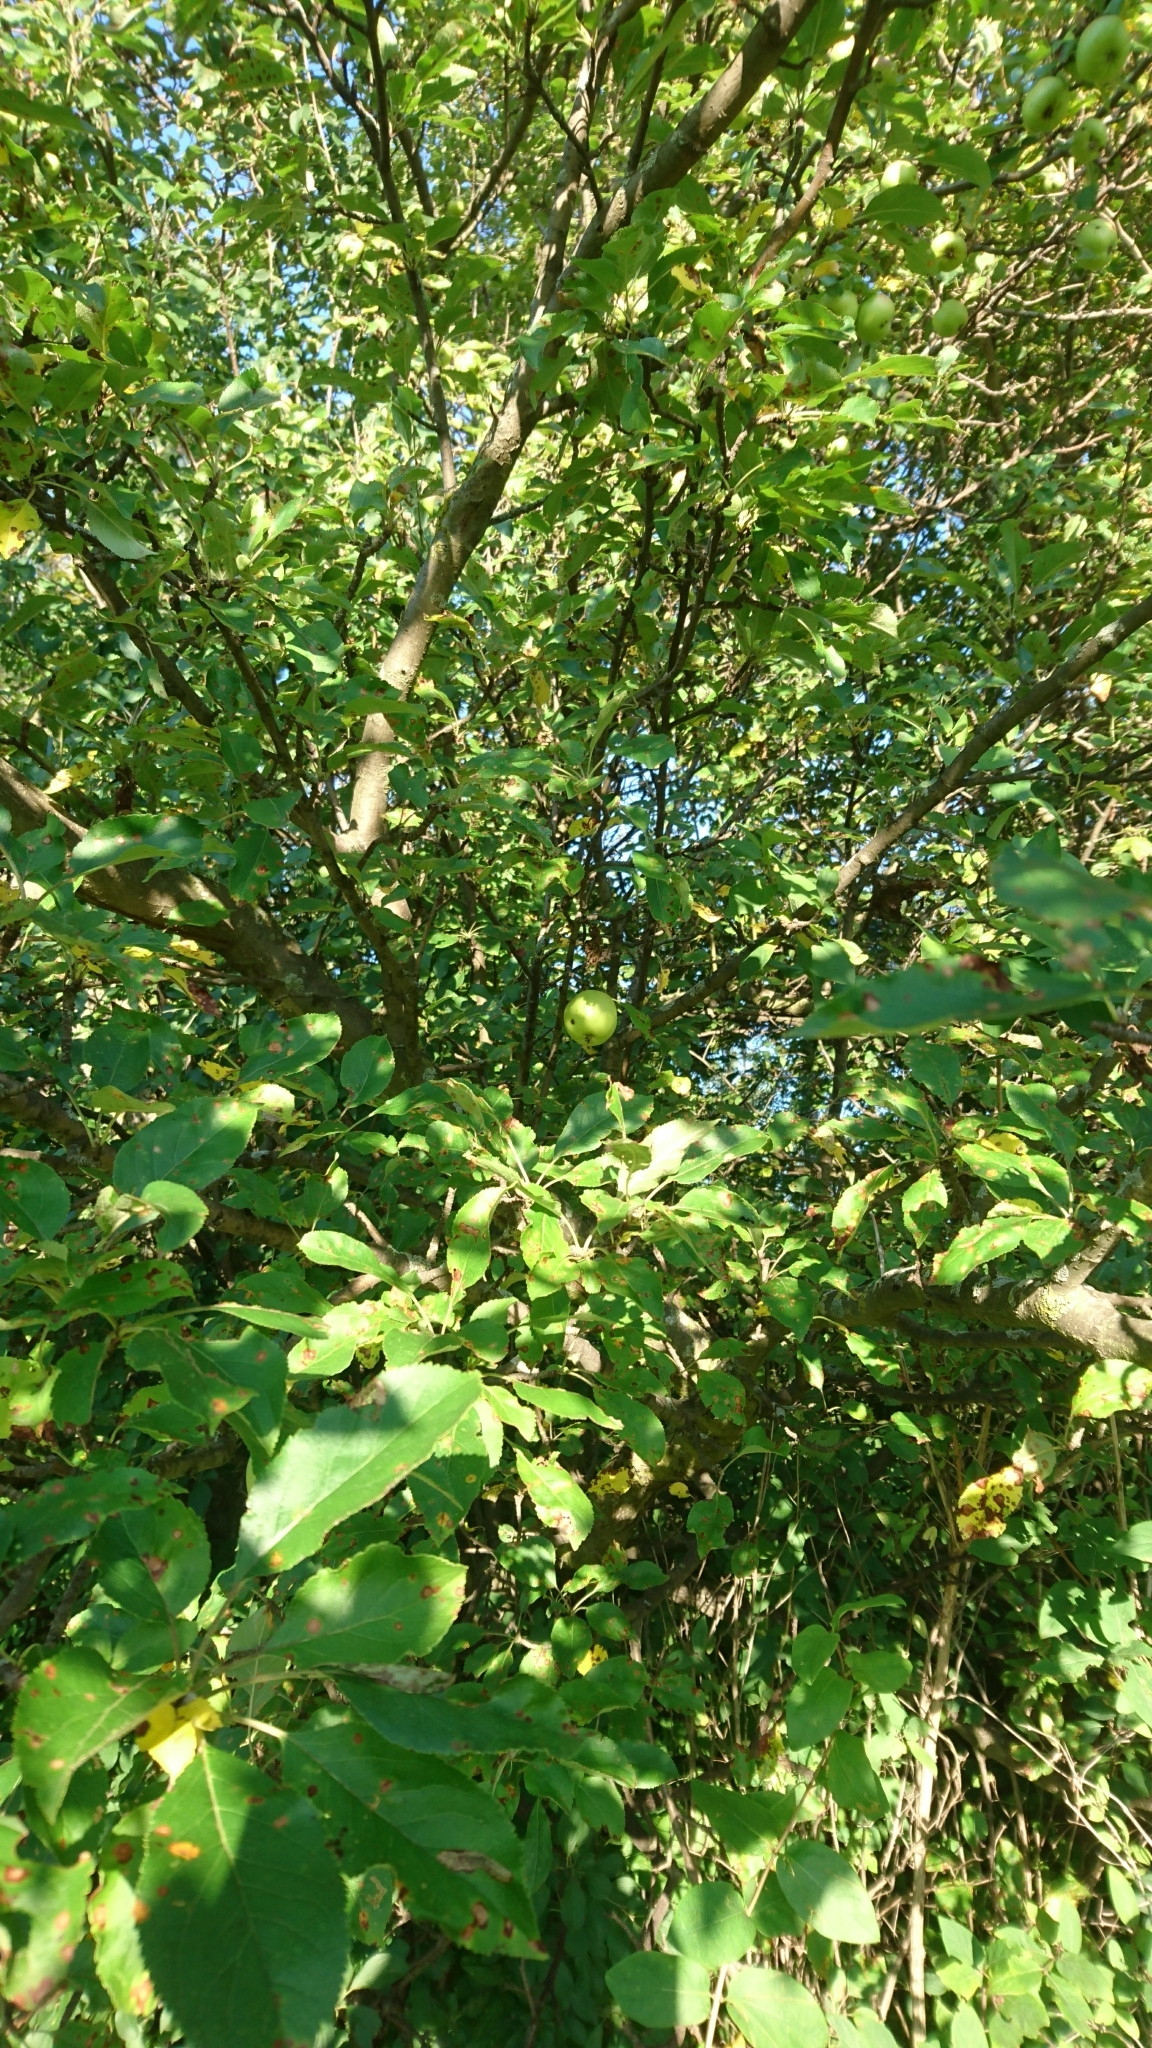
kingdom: Plantae
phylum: Tracheophyta
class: Magnoliopsida
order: Rosales
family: Rosaceae
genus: Malus
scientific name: Malus domestica
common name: Apple
